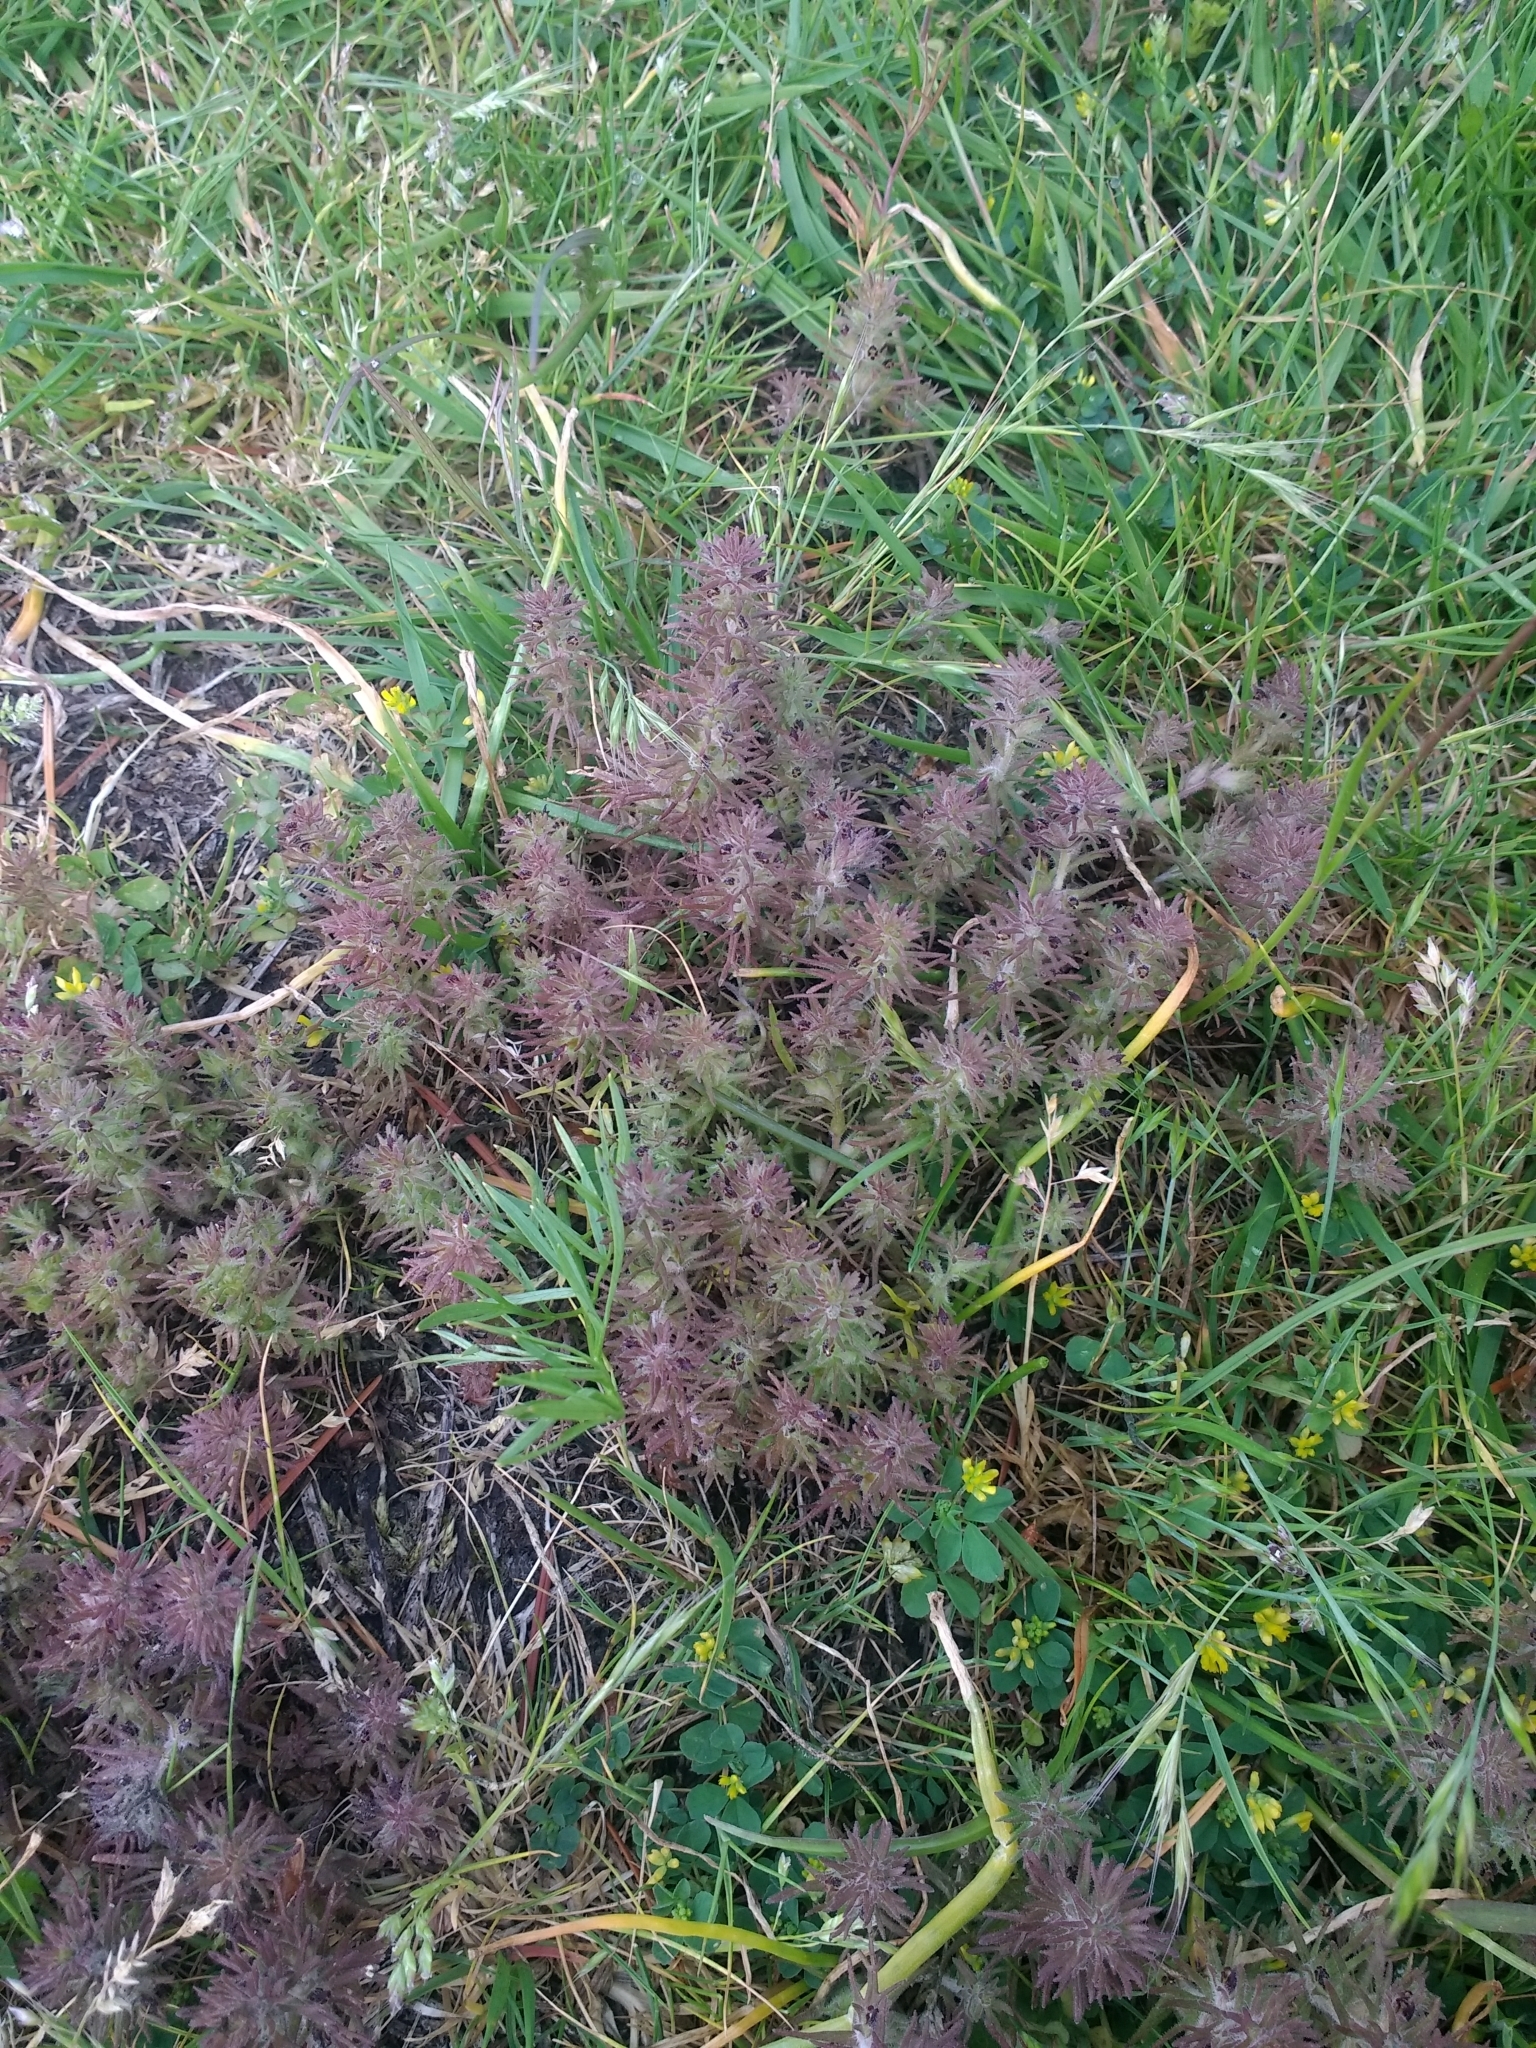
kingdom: Plantae
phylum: Tracheophyta
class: Magnoliopsida
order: Lamiales
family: Orobanchaceae
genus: Triphysaria
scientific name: Triphysaria pusilla
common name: Dwarf false owl-clover
